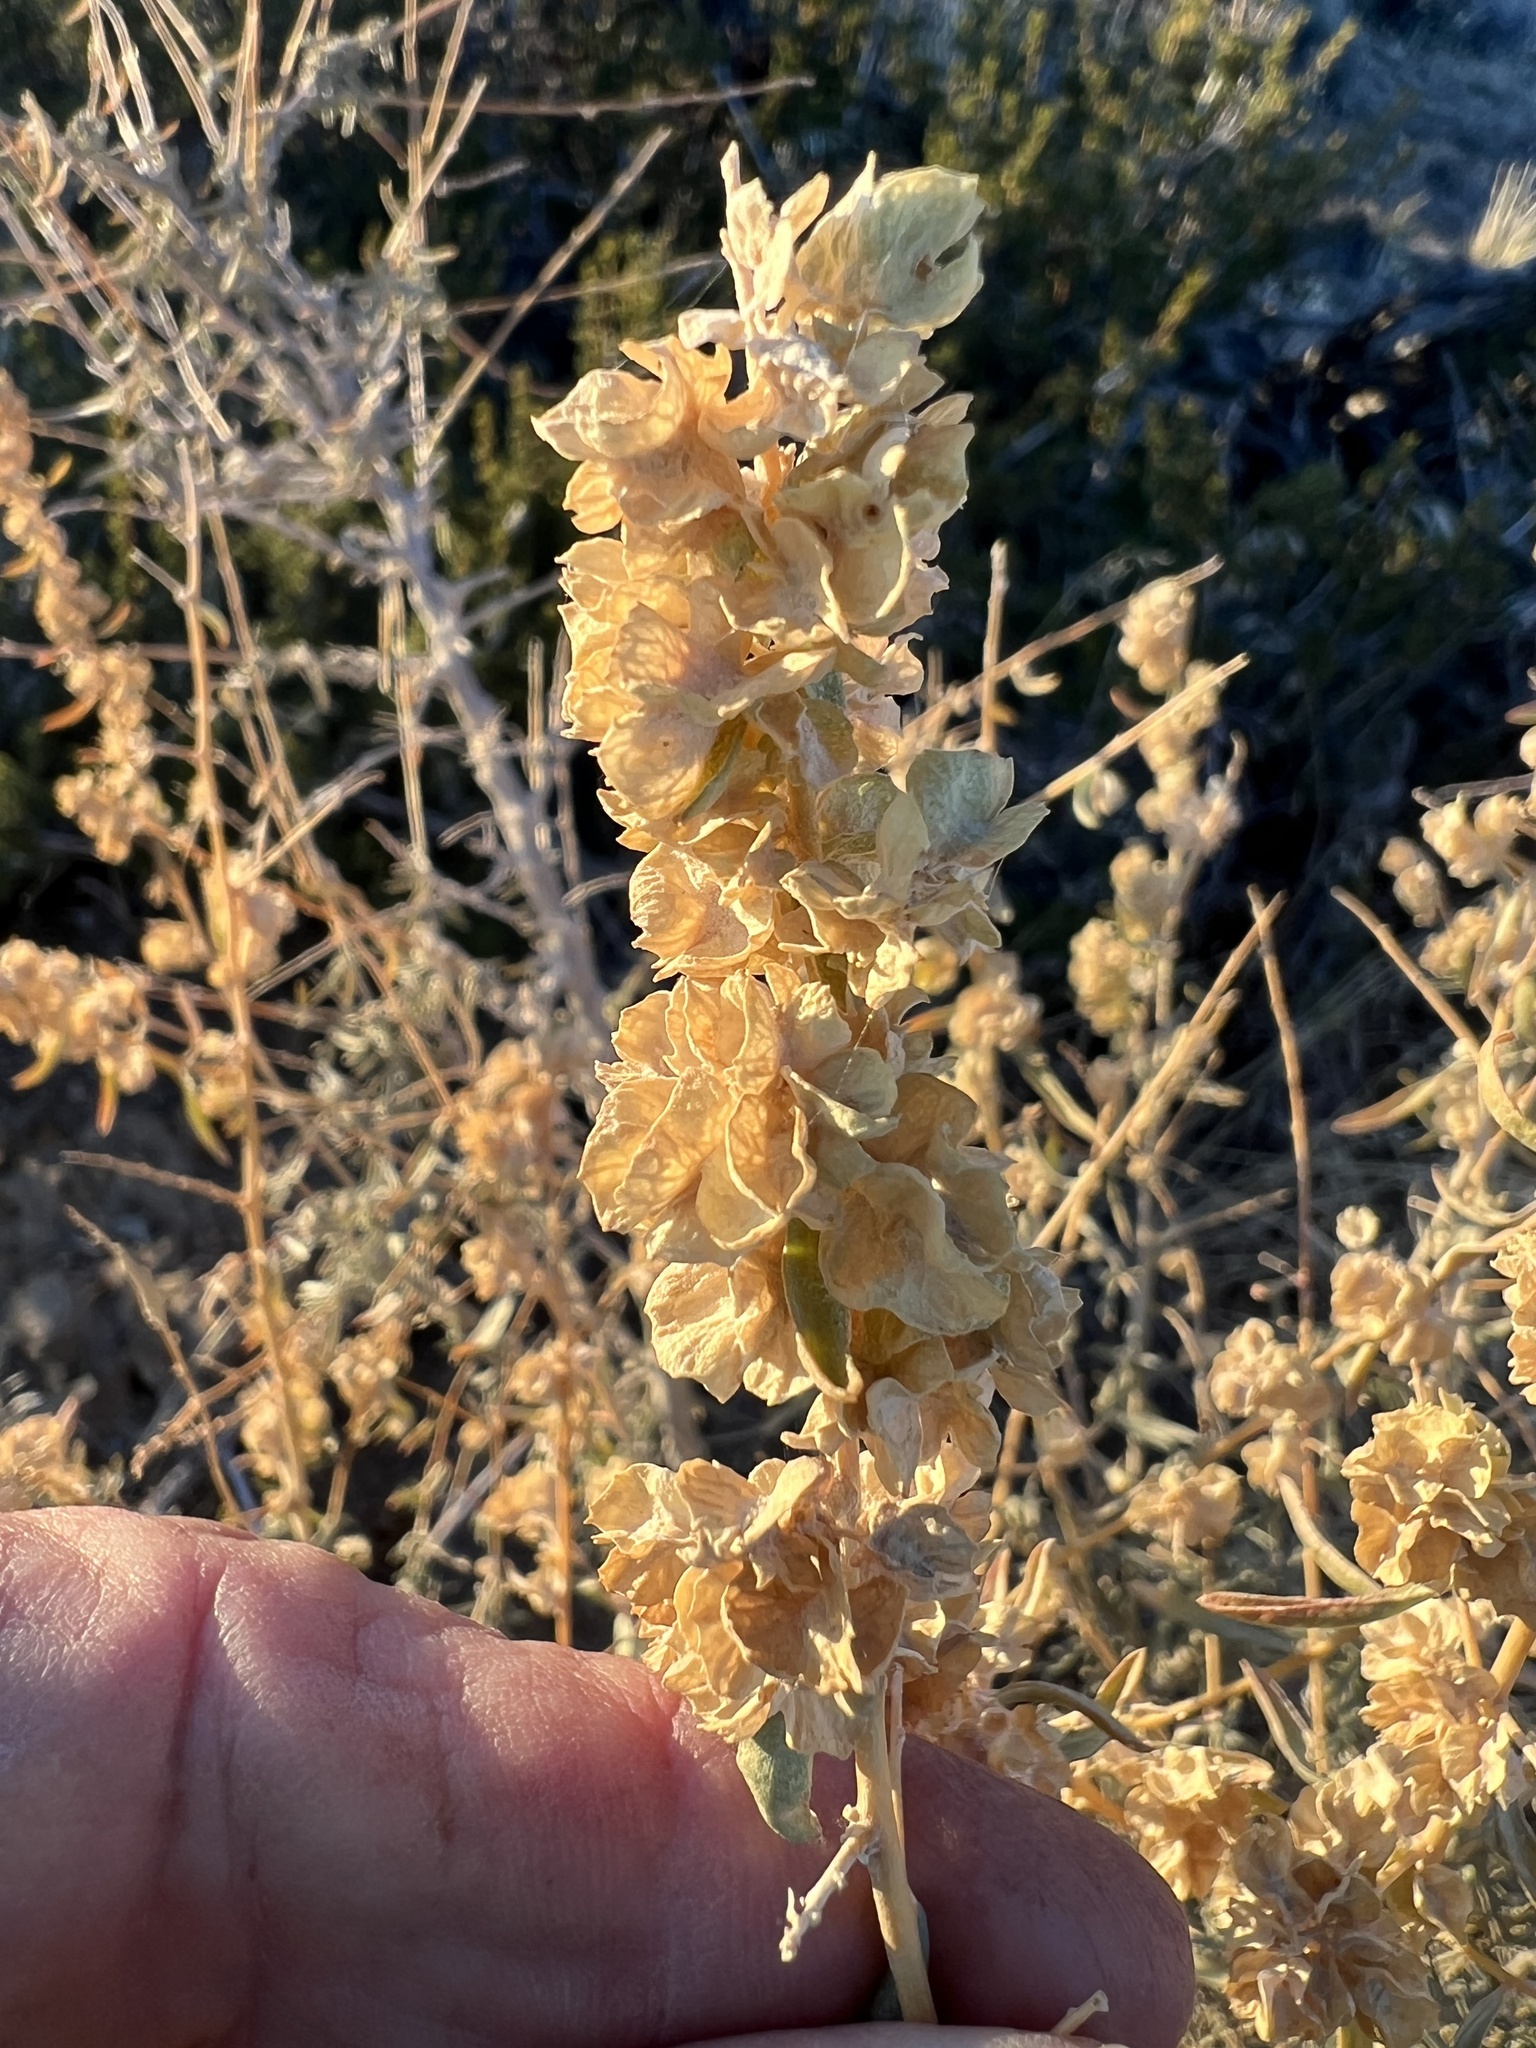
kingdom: Plantae
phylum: Tracheophyta
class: Magnoliopsida
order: Caryophyllales
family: Amaranthaceae
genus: Atriplex
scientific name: Atriplex canescens
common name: Four-wing saltbush
